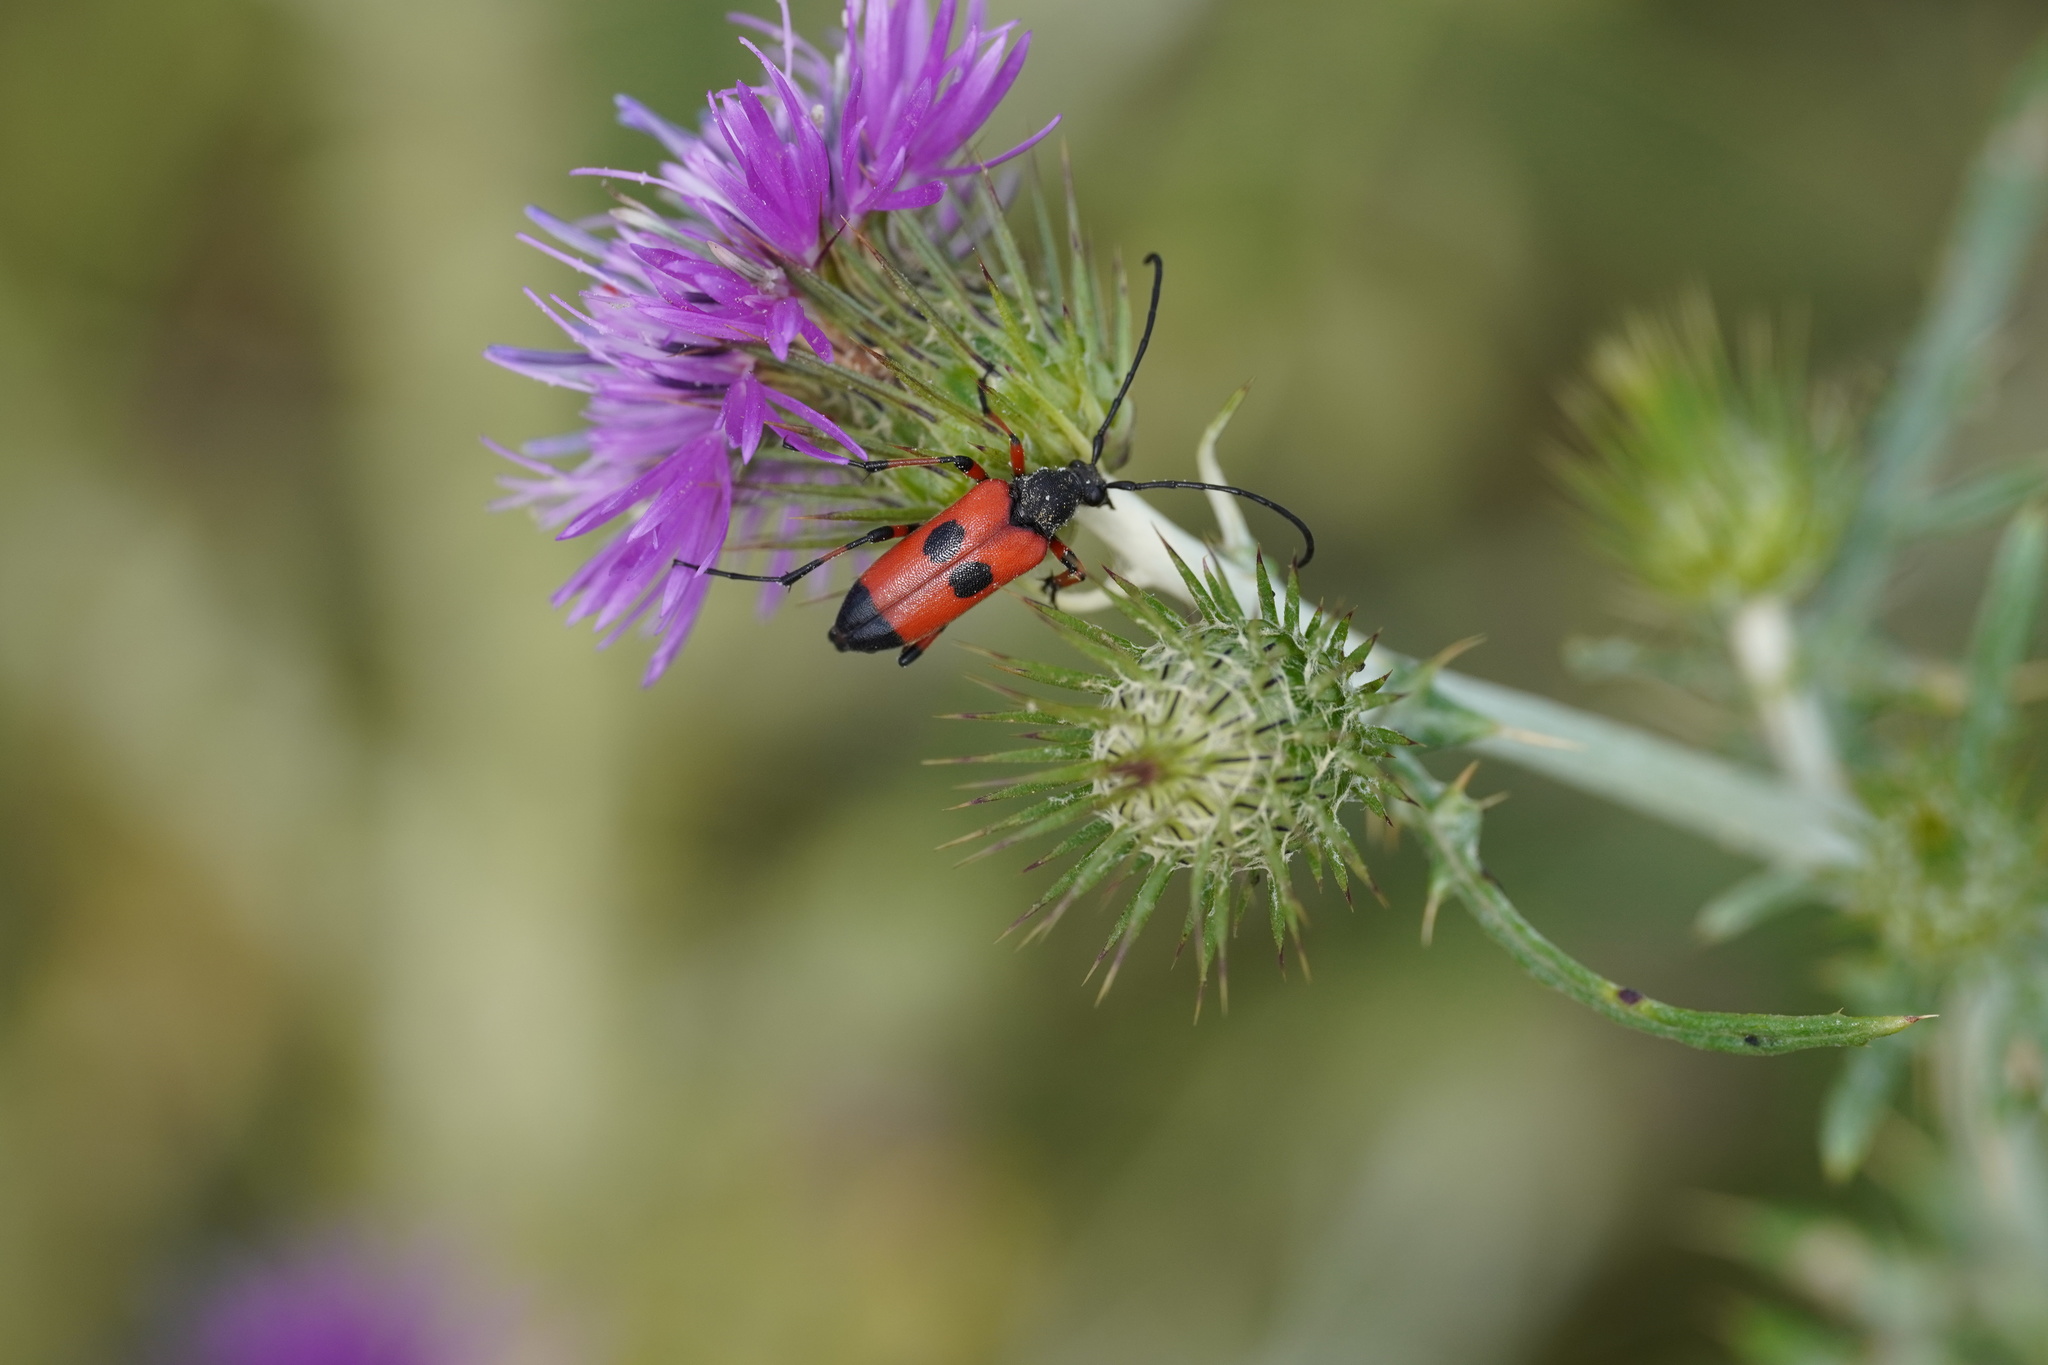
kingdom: Animalia
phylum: Arthropoda
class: Insecta
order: Coleoptera
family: Cerambycidae
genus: Nustera
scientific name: Nustera distigma
